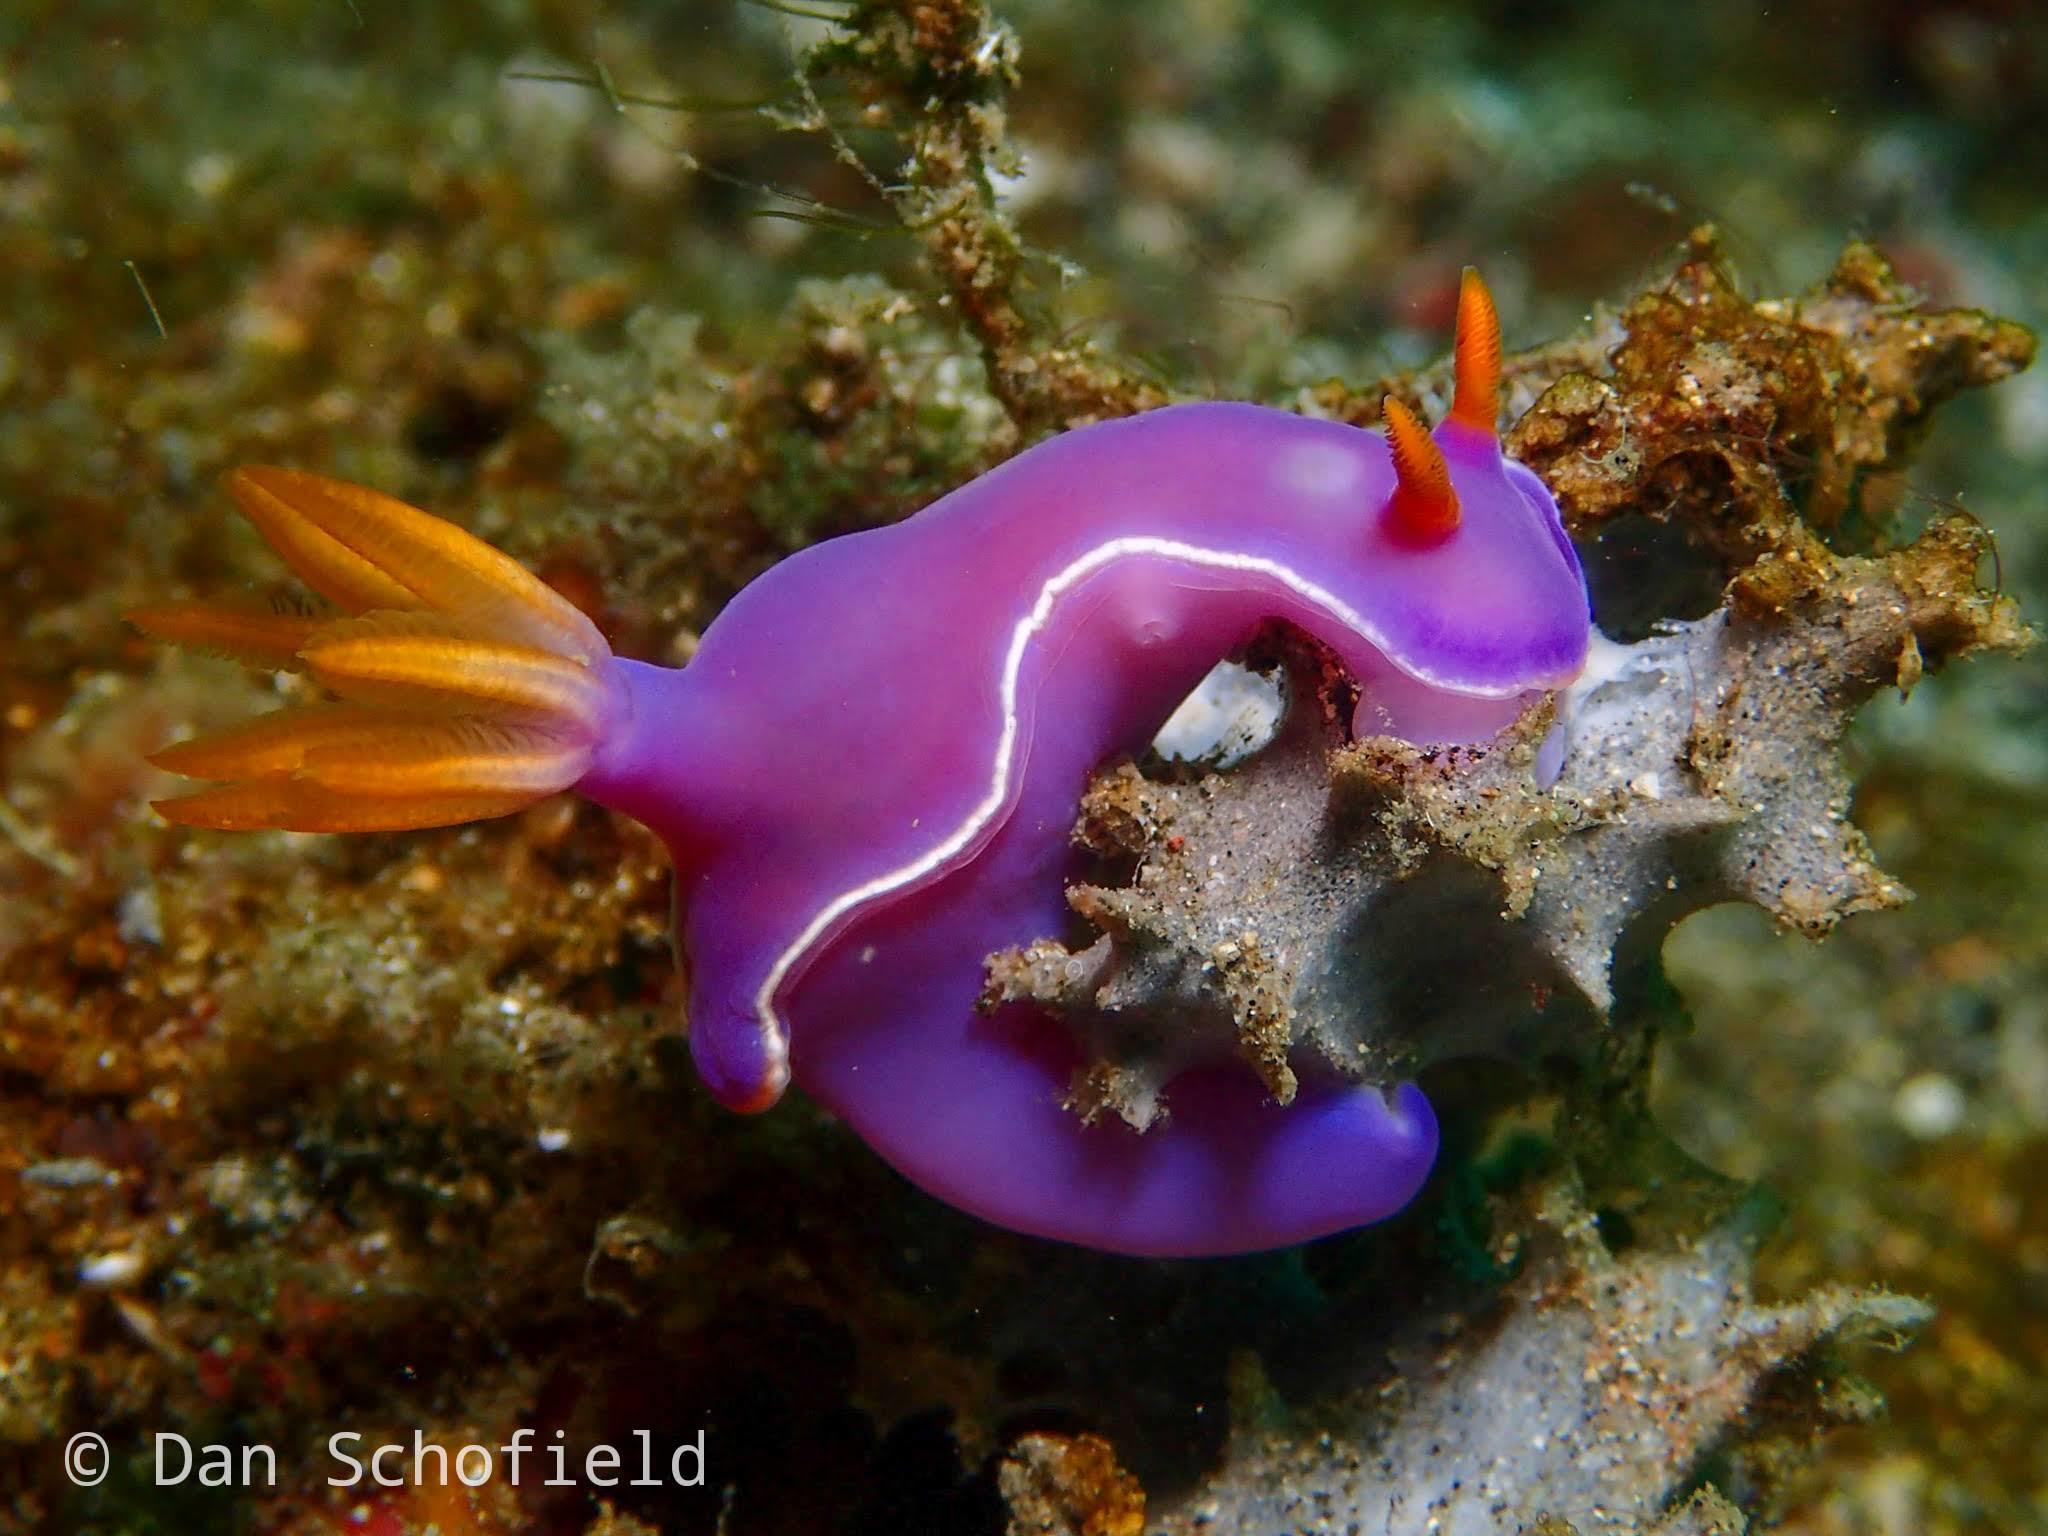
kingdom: Animalia
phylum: Mollusca
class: Gastropoda
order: Nudibranchia
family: Chromodorididae
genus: Hypselodoris
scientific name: Hypselodoris bullockii
